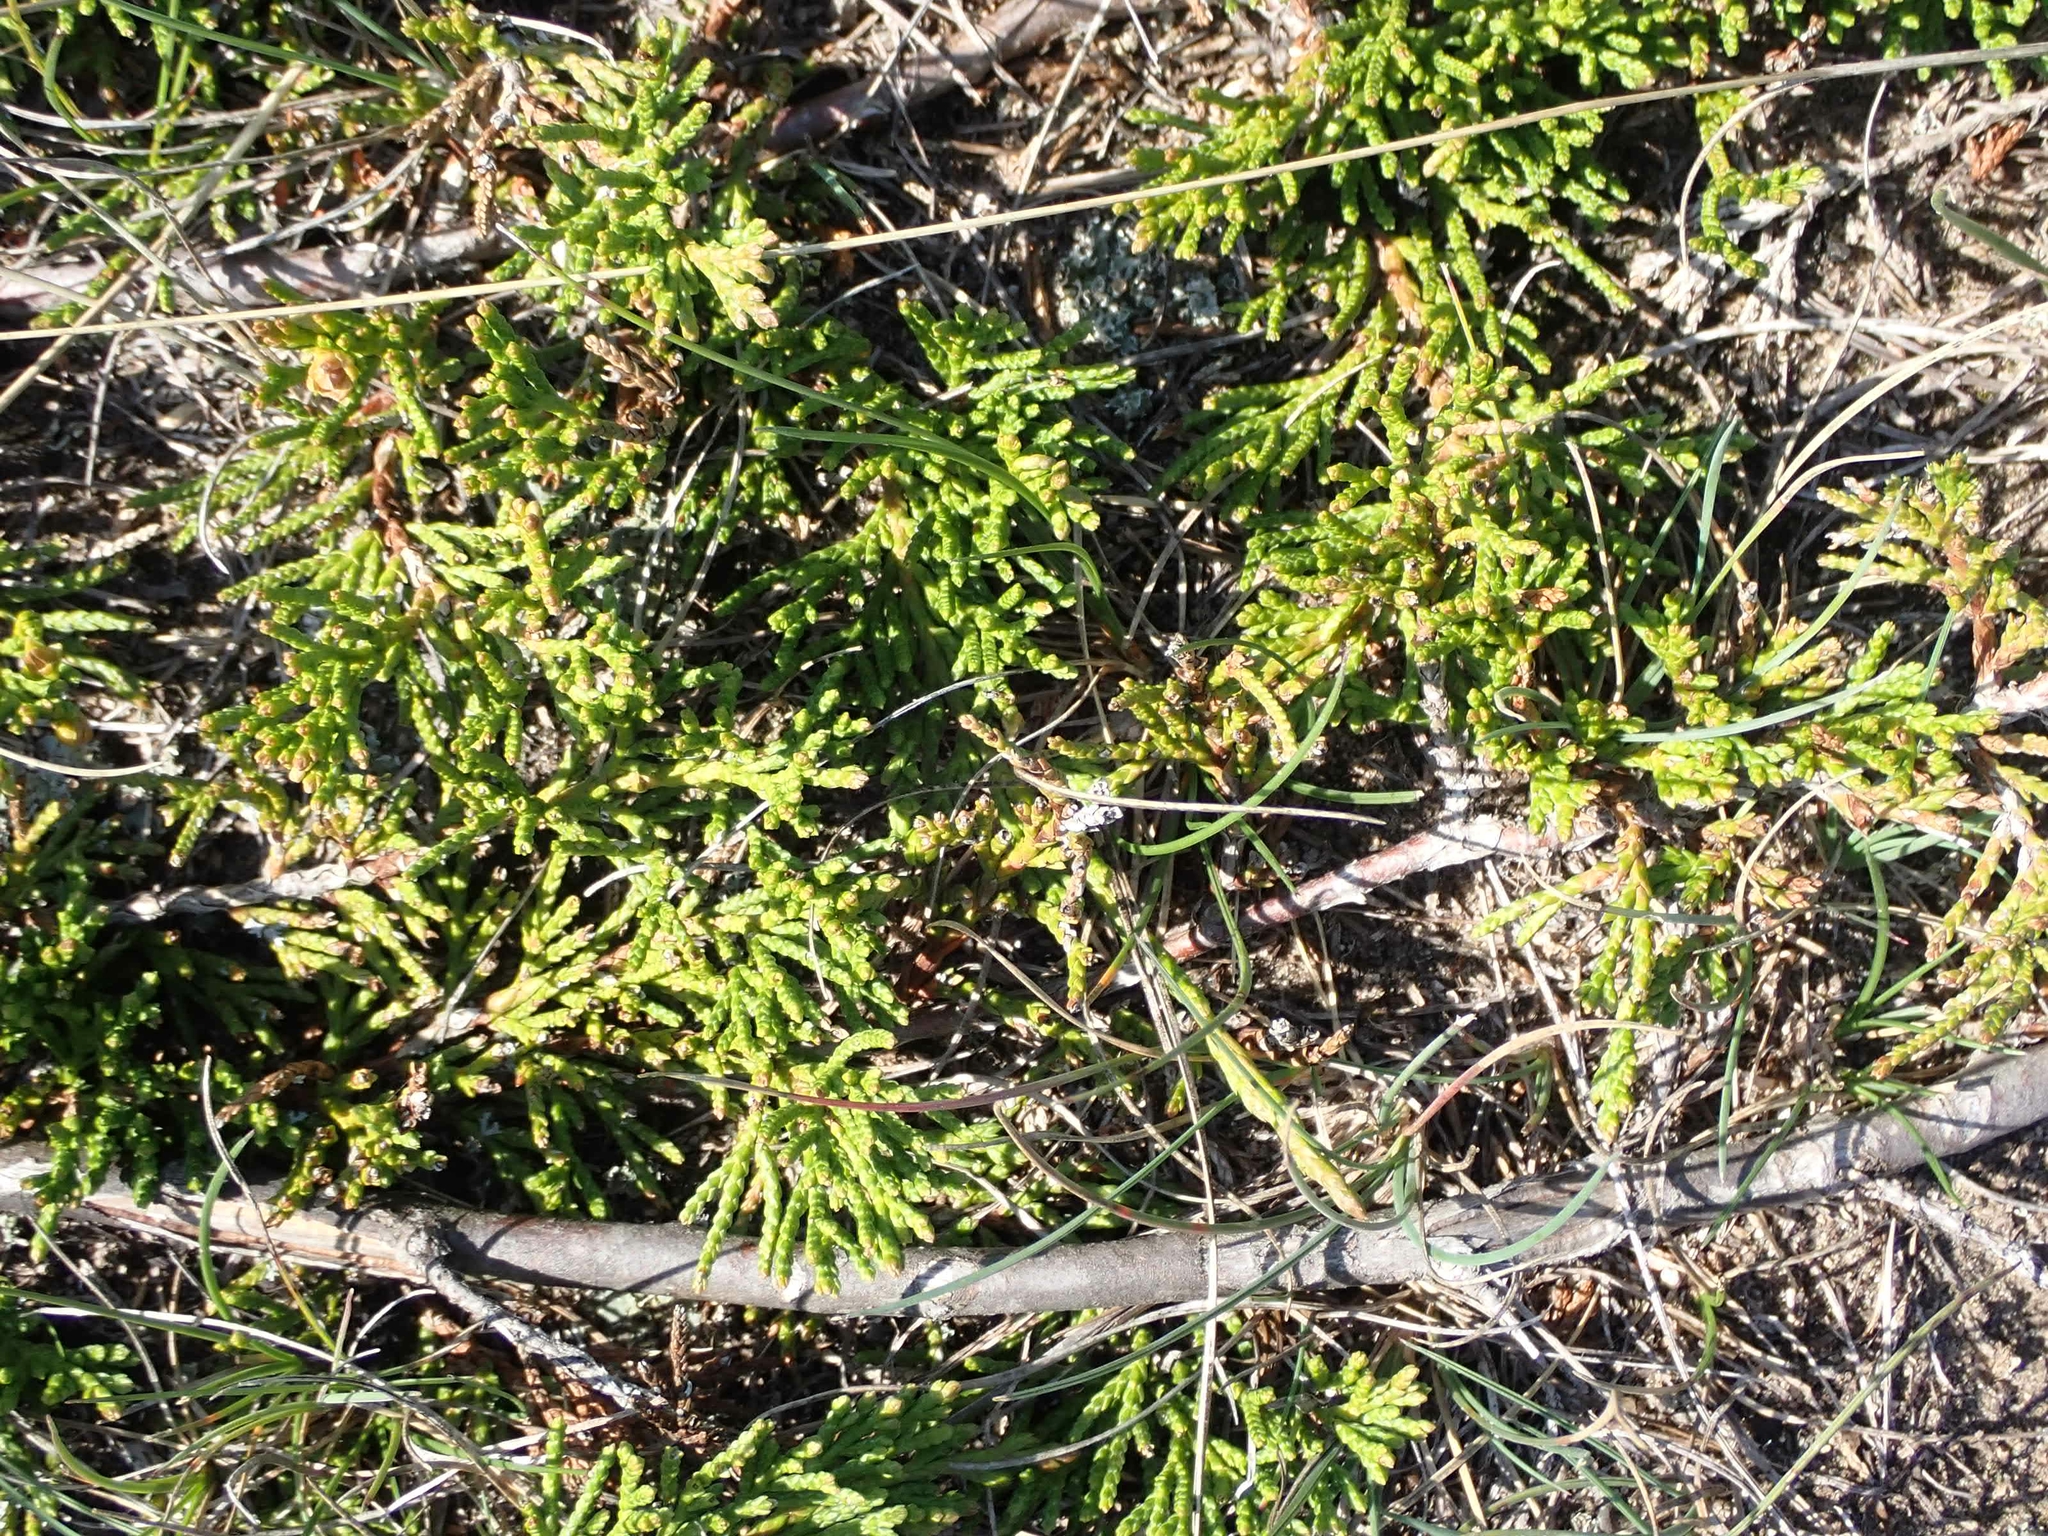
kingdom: Plantae
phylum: Tracheophyta
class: Pinopsida
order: Pinales
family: Cupressaceae
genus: Juniperus
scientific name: Juniperus horizontalis
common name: Creeping juniper
